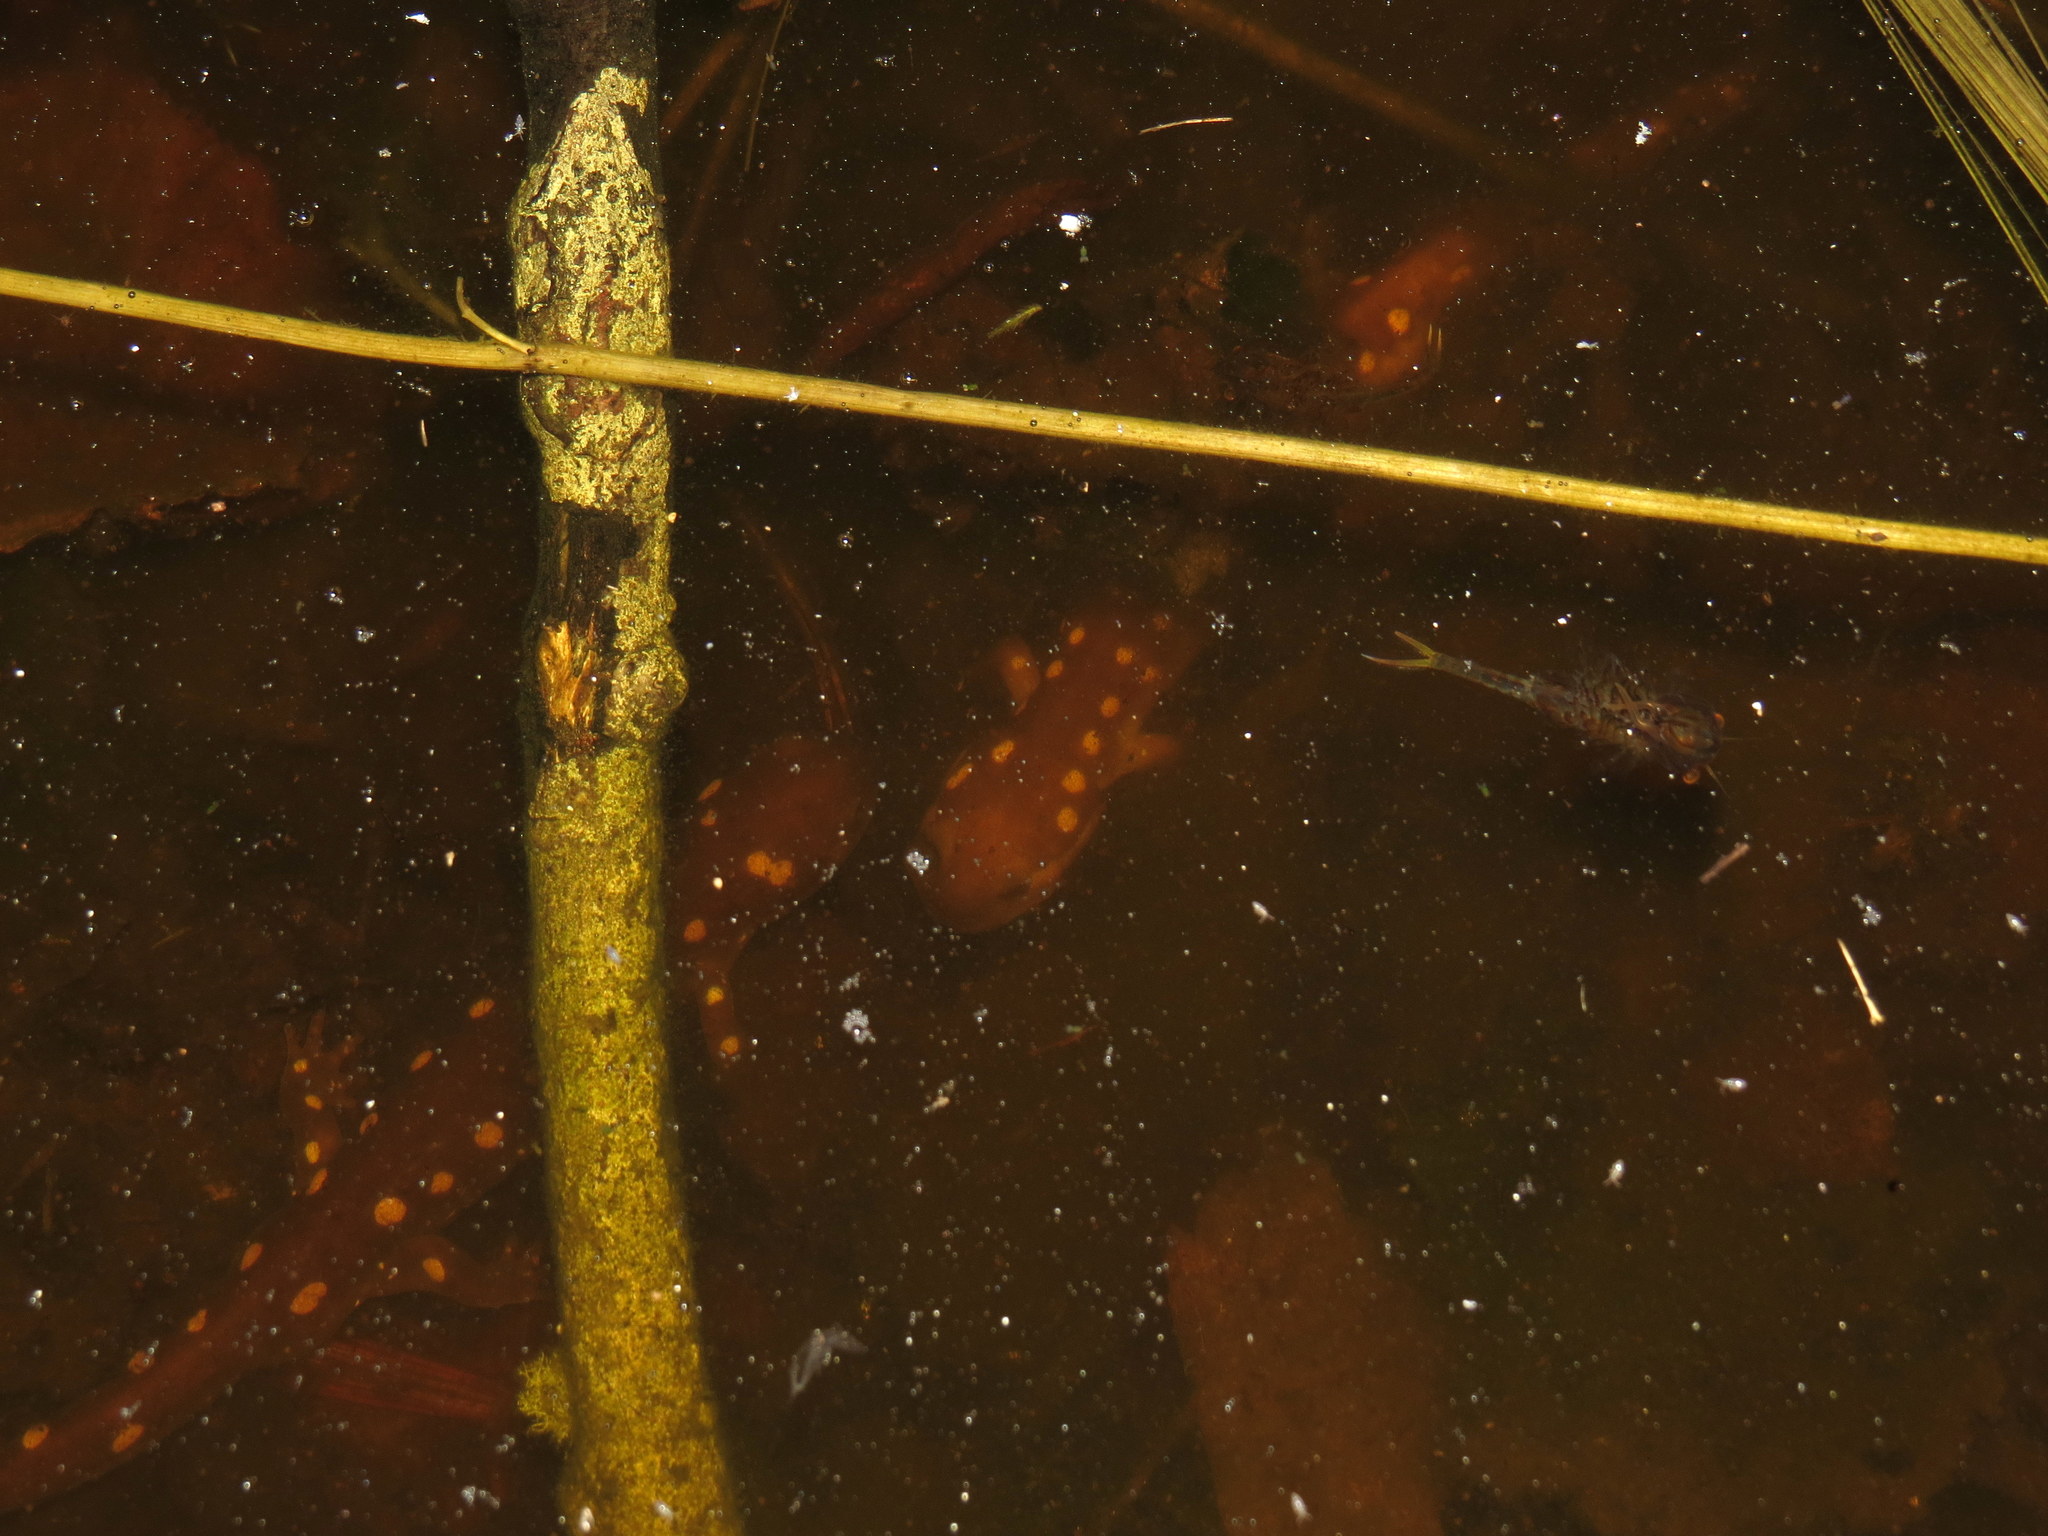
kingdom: Animalia
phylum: Chordata
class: Amphibia
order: Caudata
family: Ambystomatidae
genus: Ambystoma
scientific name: Ambystoma maculatum
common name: Spotted salamander
